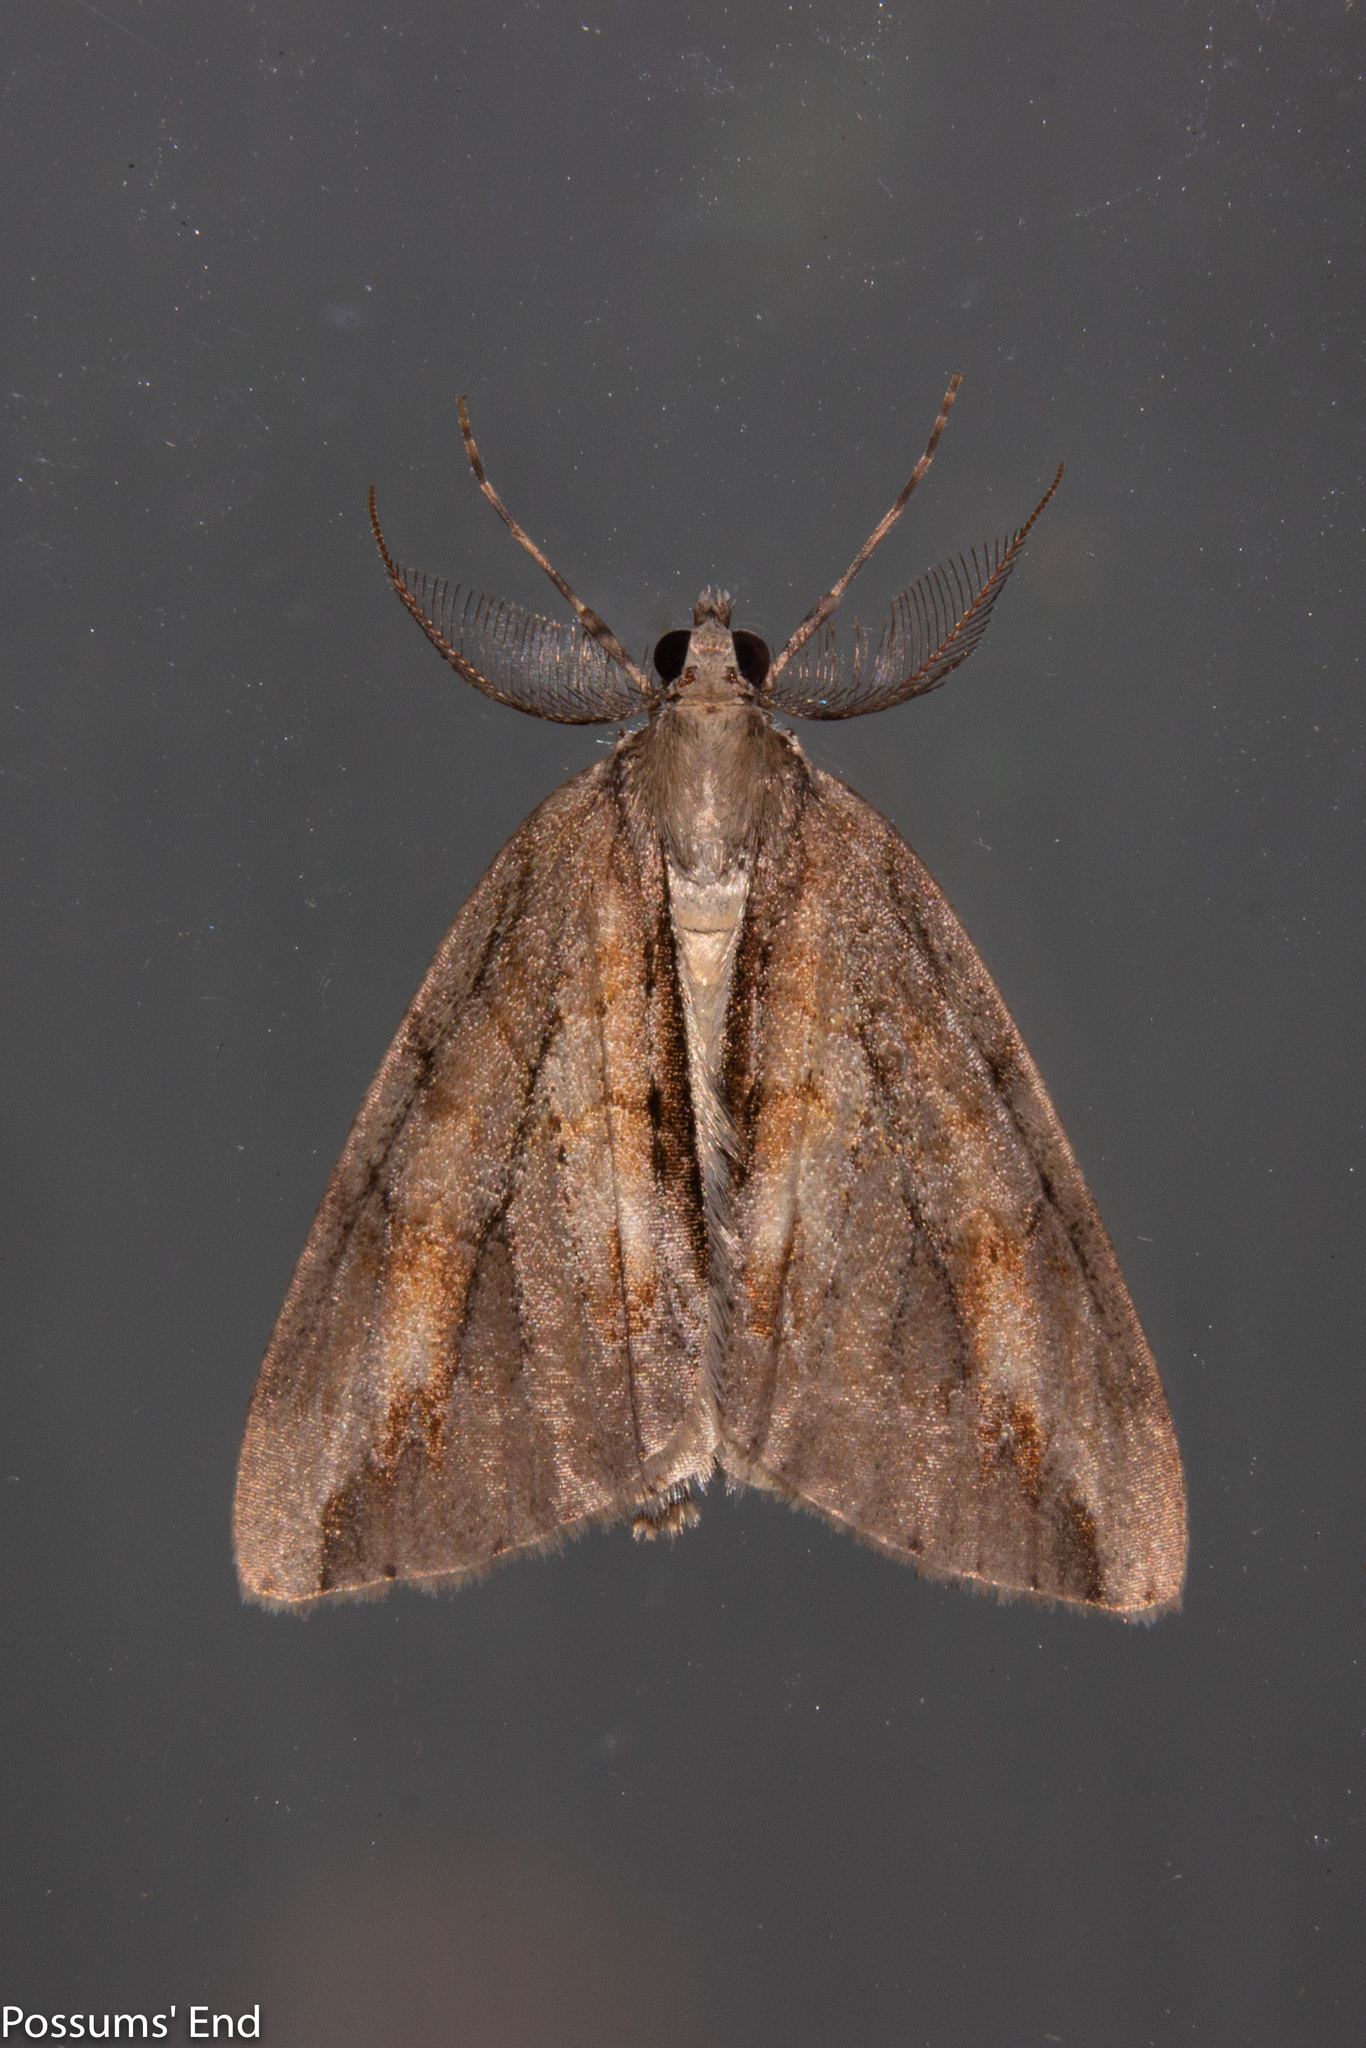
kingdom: Animalia
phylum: Arthropoda
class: Insecta
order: Lepidoptera
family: Geometridae
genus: Pseudocoremia
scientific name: Pseudocoremia lupinata
